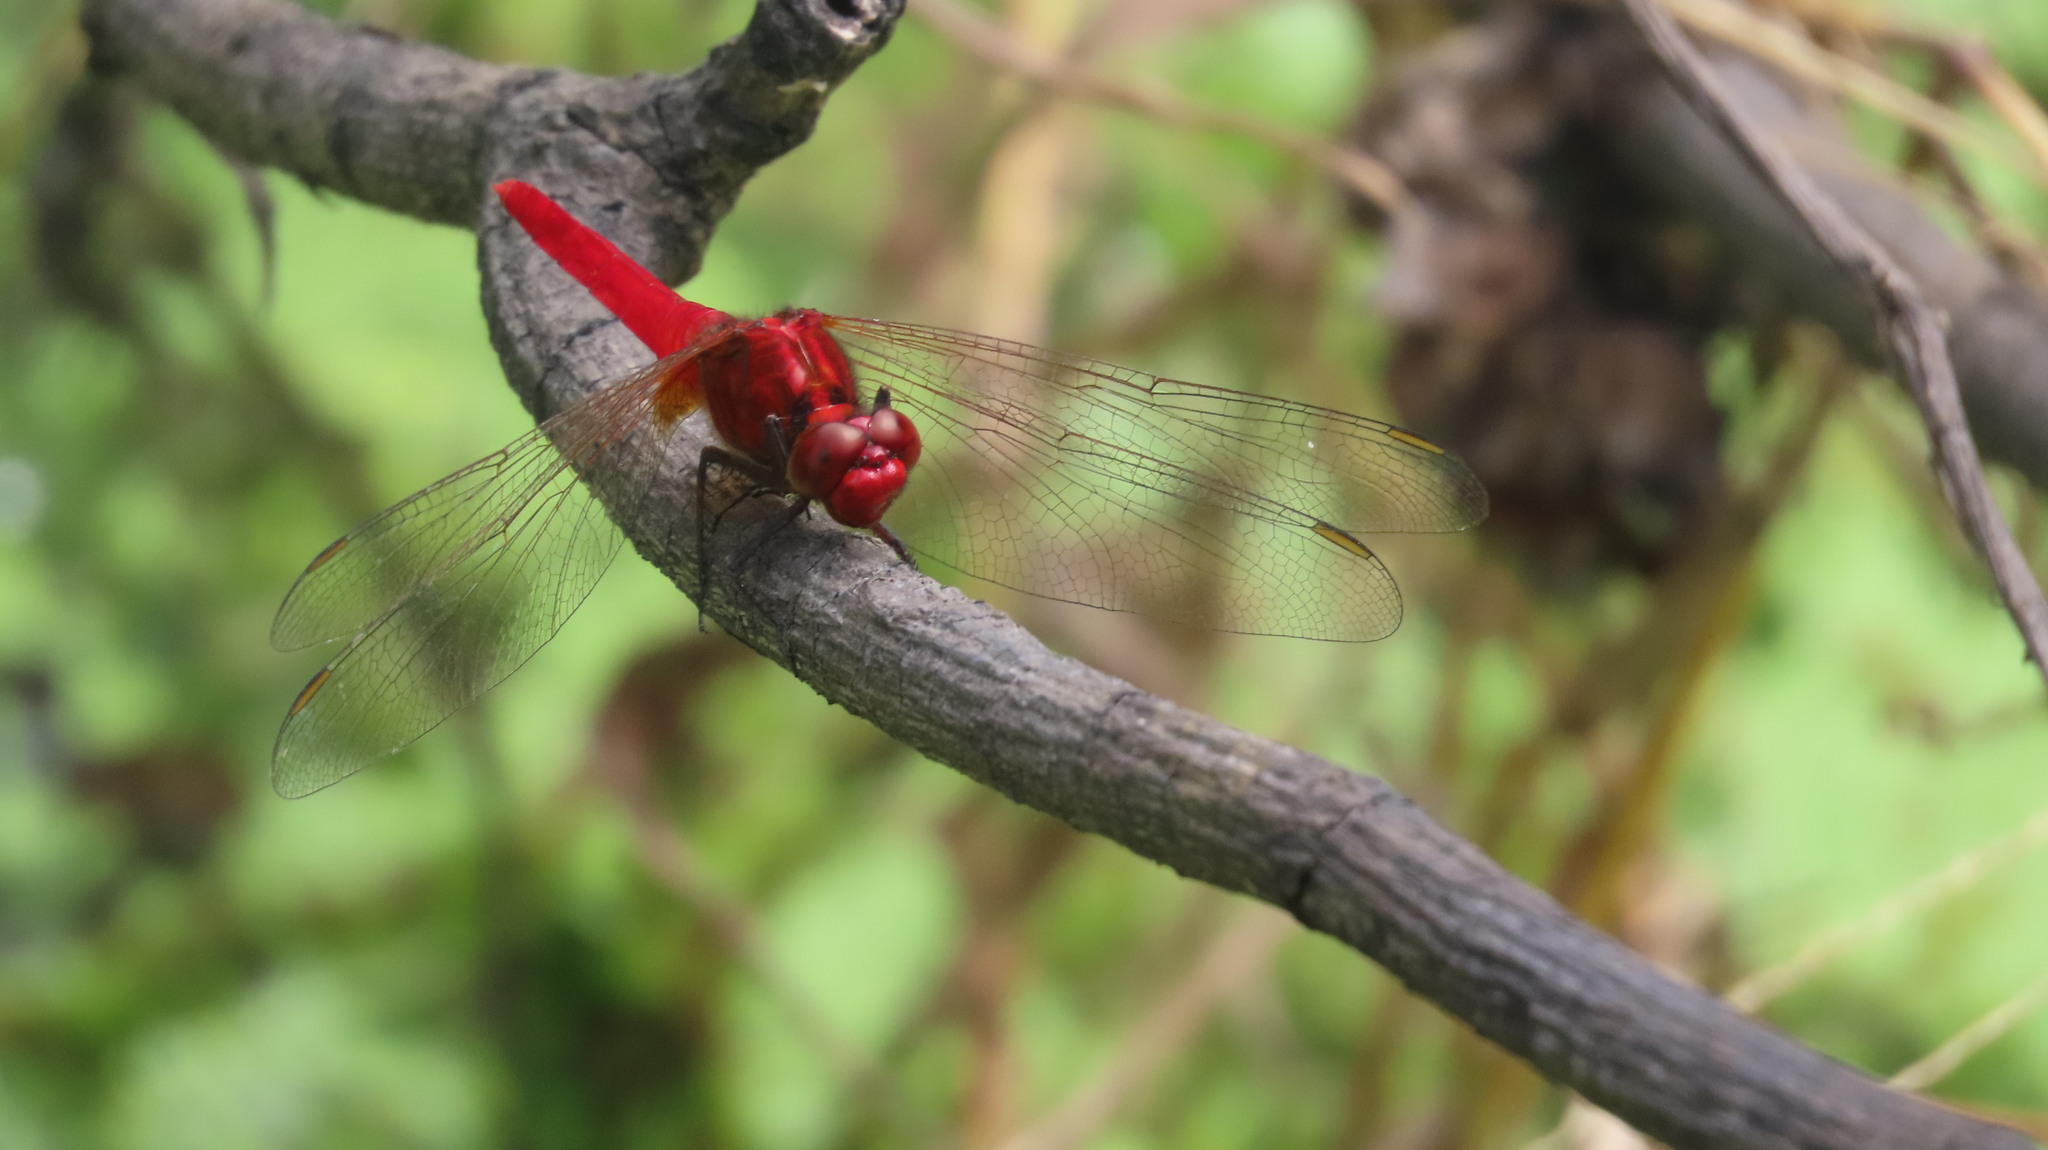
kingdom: Animalia
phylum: Arthropoda
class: Insecta
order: Odonata
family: Libellulidae
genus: Rhodothemis
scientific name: Rhodothemis rufa
